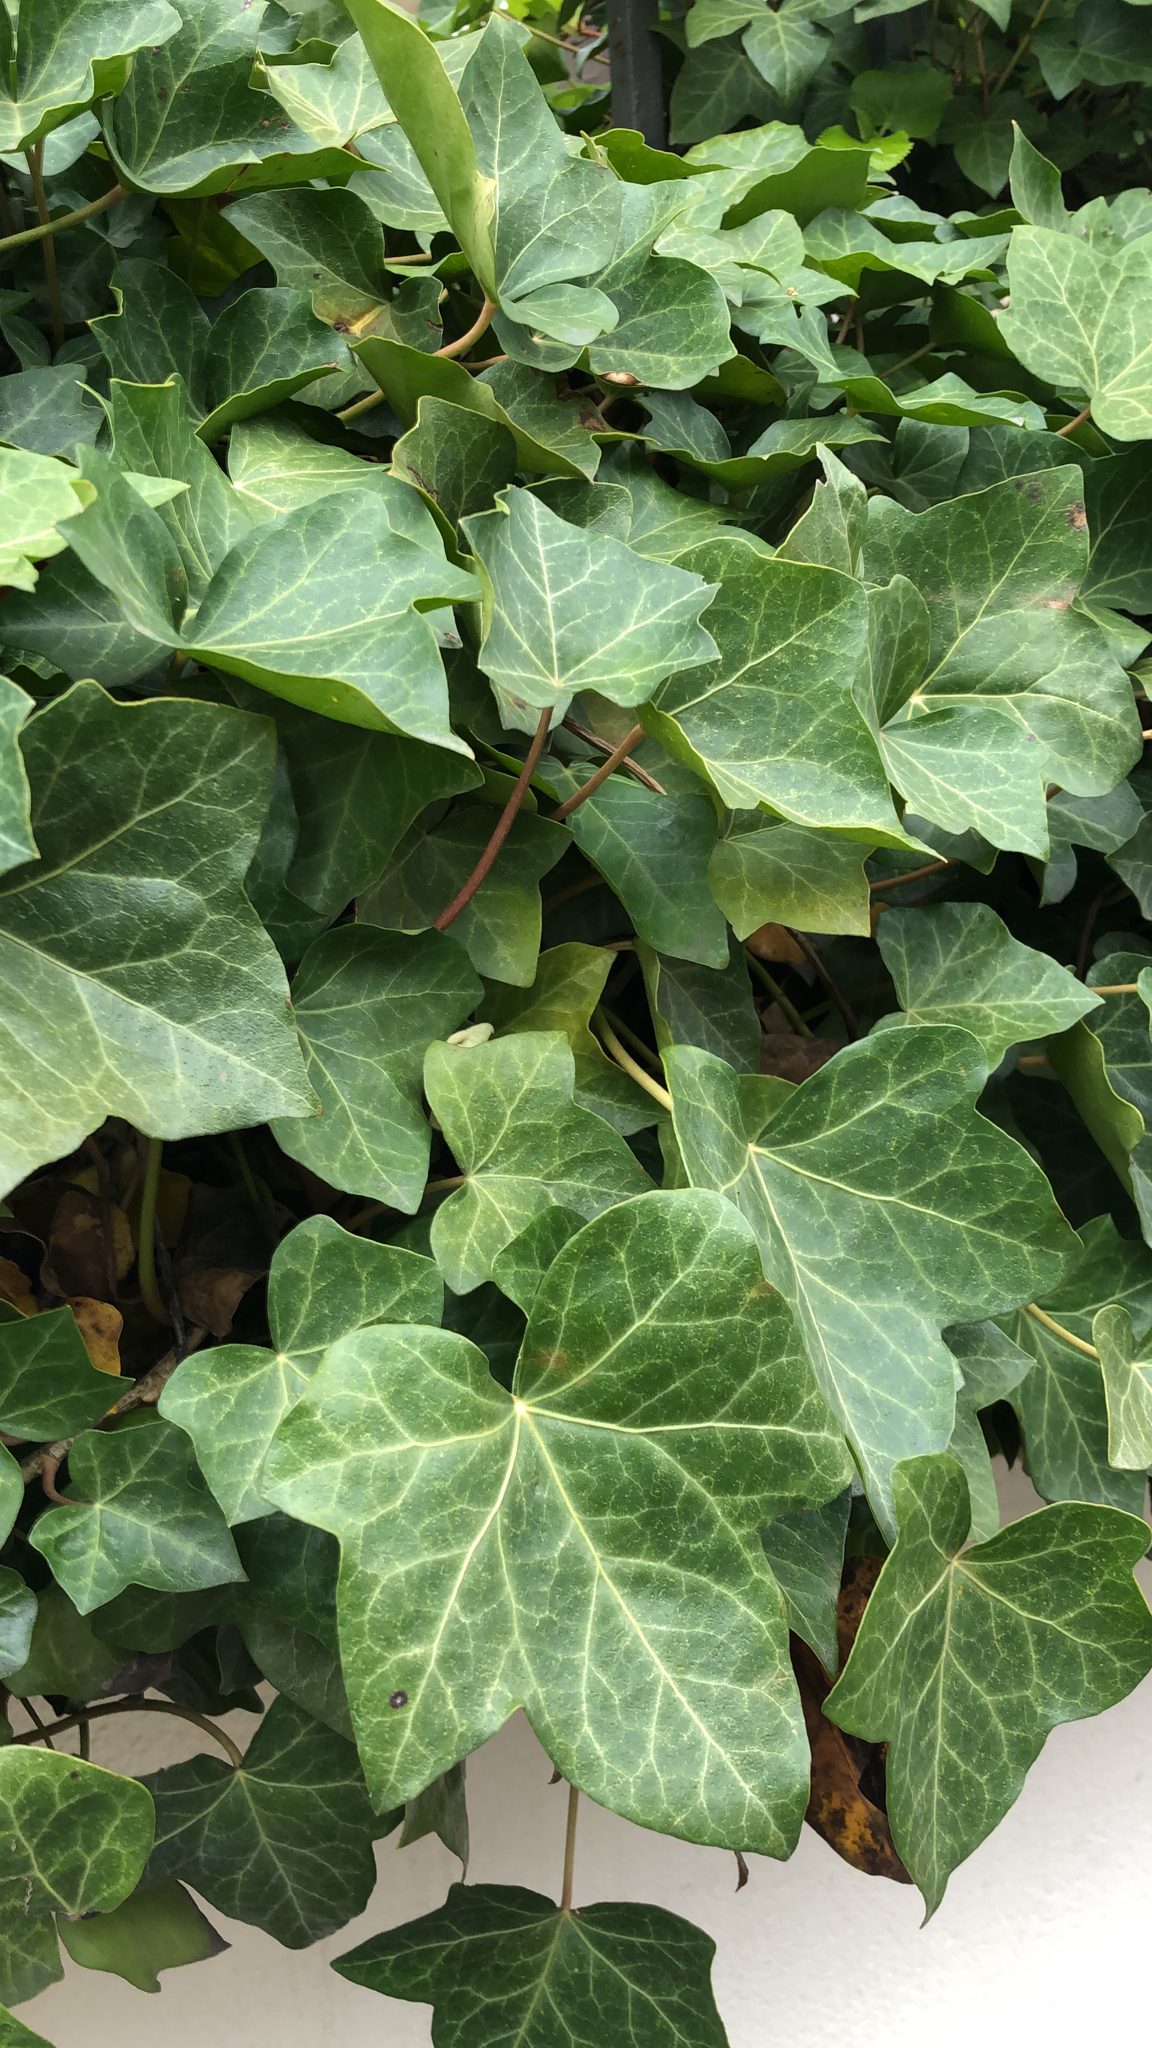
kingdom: Plantae
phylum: Tracheophyta
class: Magnoliopsida
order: Apiales
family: Araliaceae
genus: Hedera
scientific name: Hedera helix
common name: Ivy
